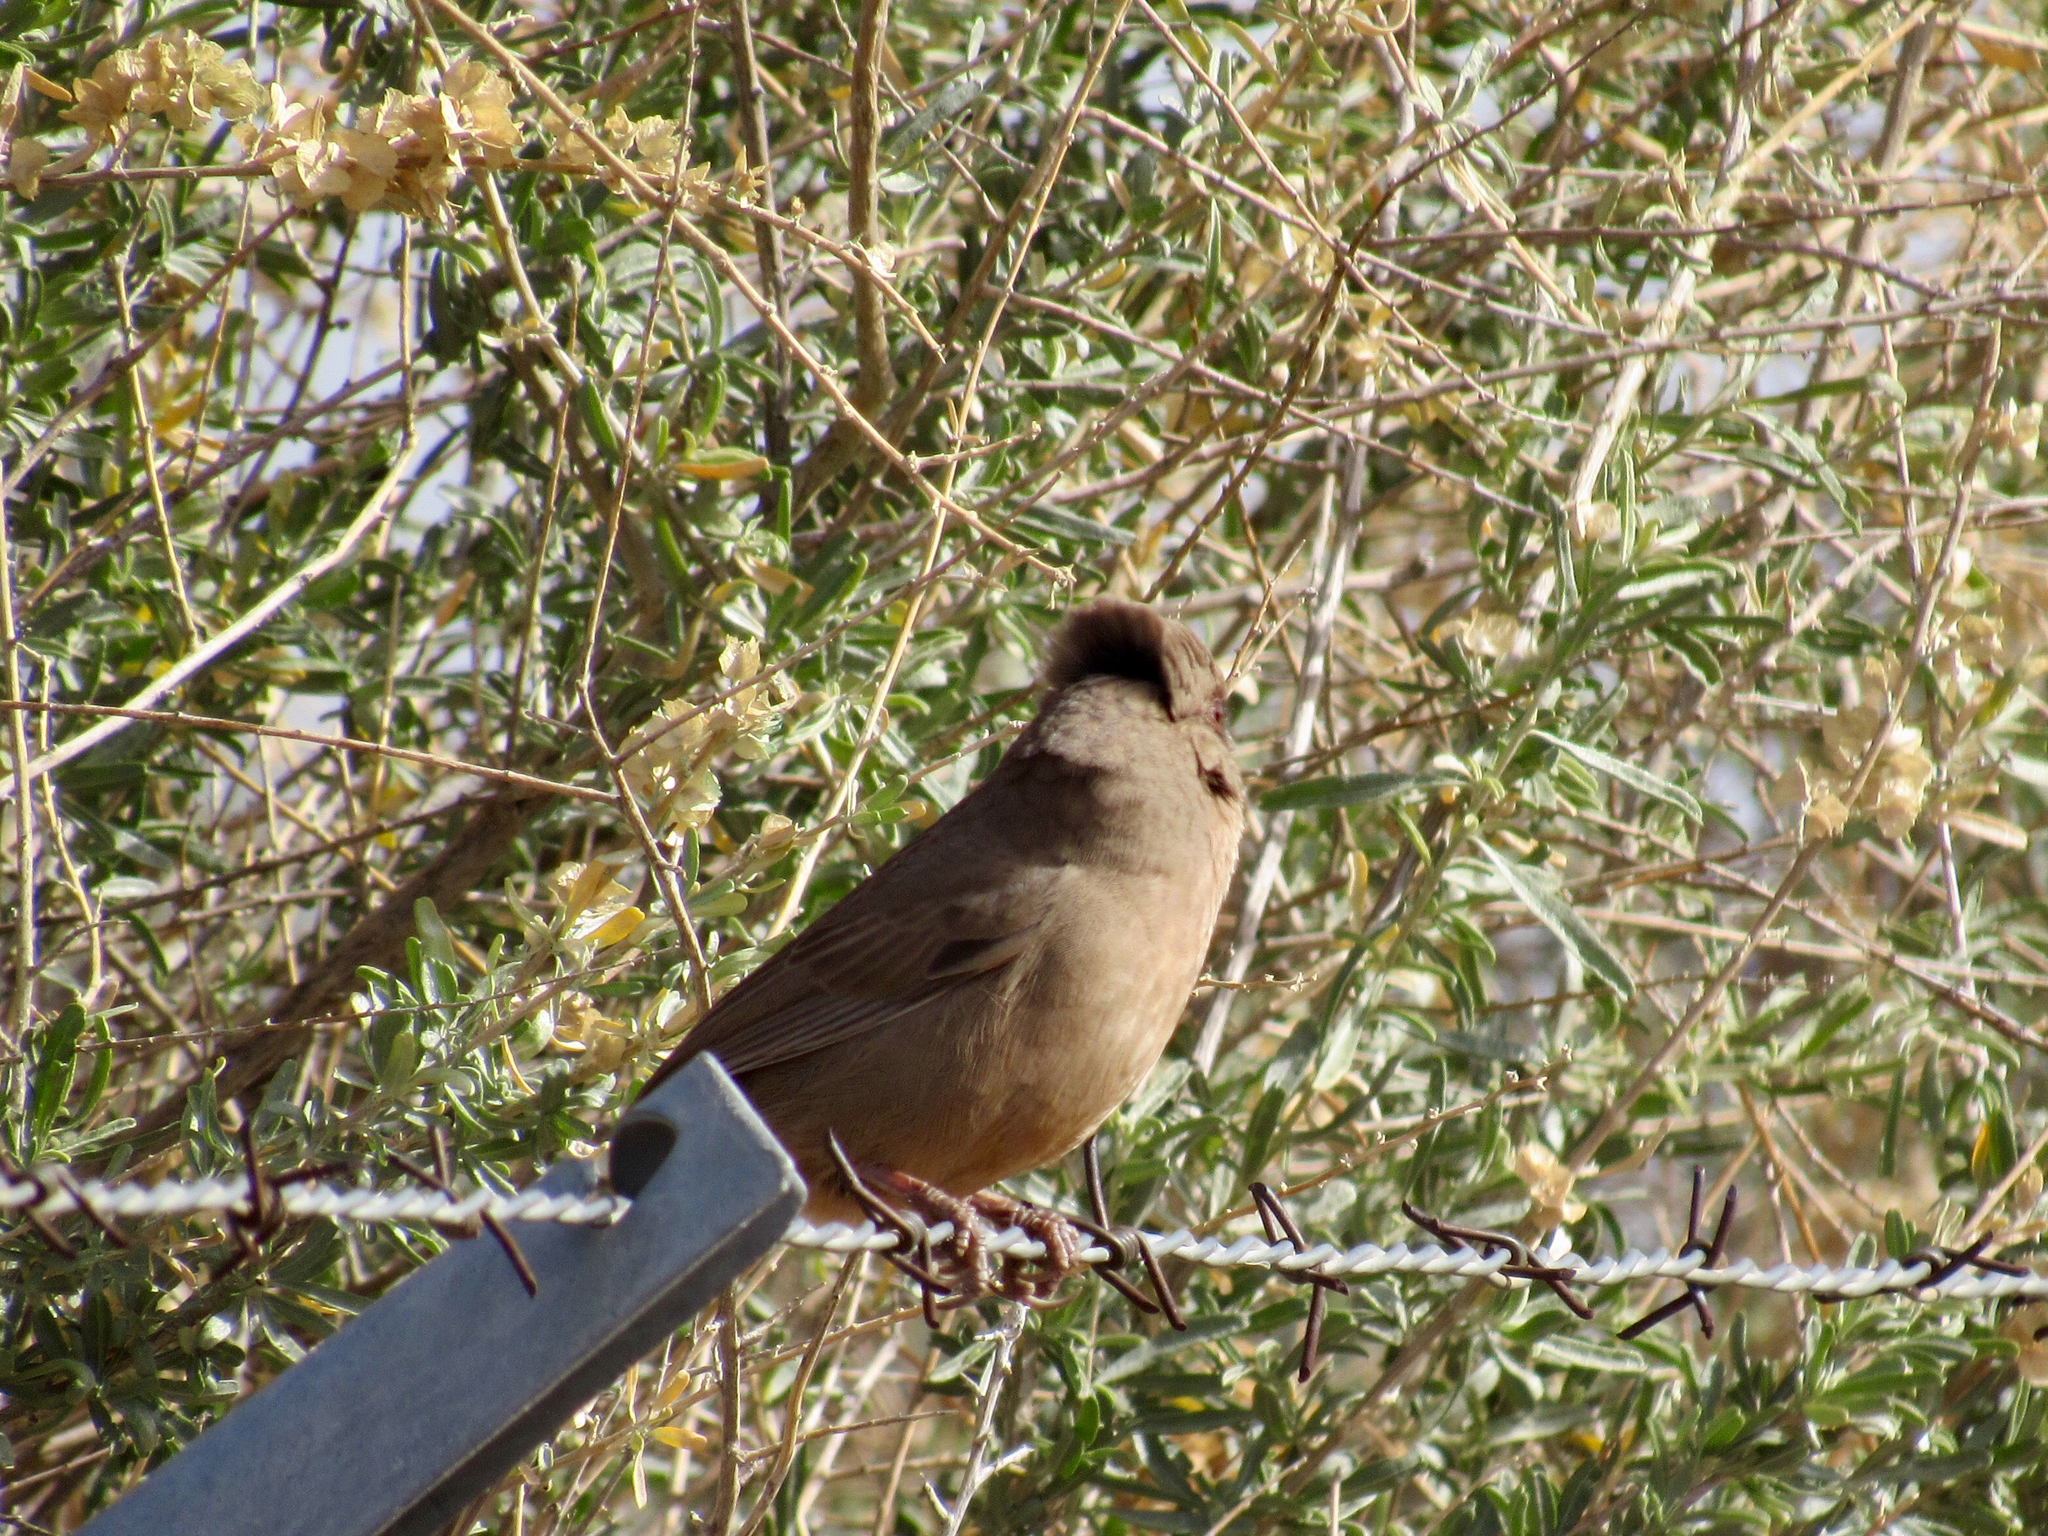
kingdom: Animalia
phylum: Chordata
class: Aves
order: Passeriformes
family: Passerellidae
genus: Melozone
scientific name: Melozone aberti
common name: Abert's towhee
